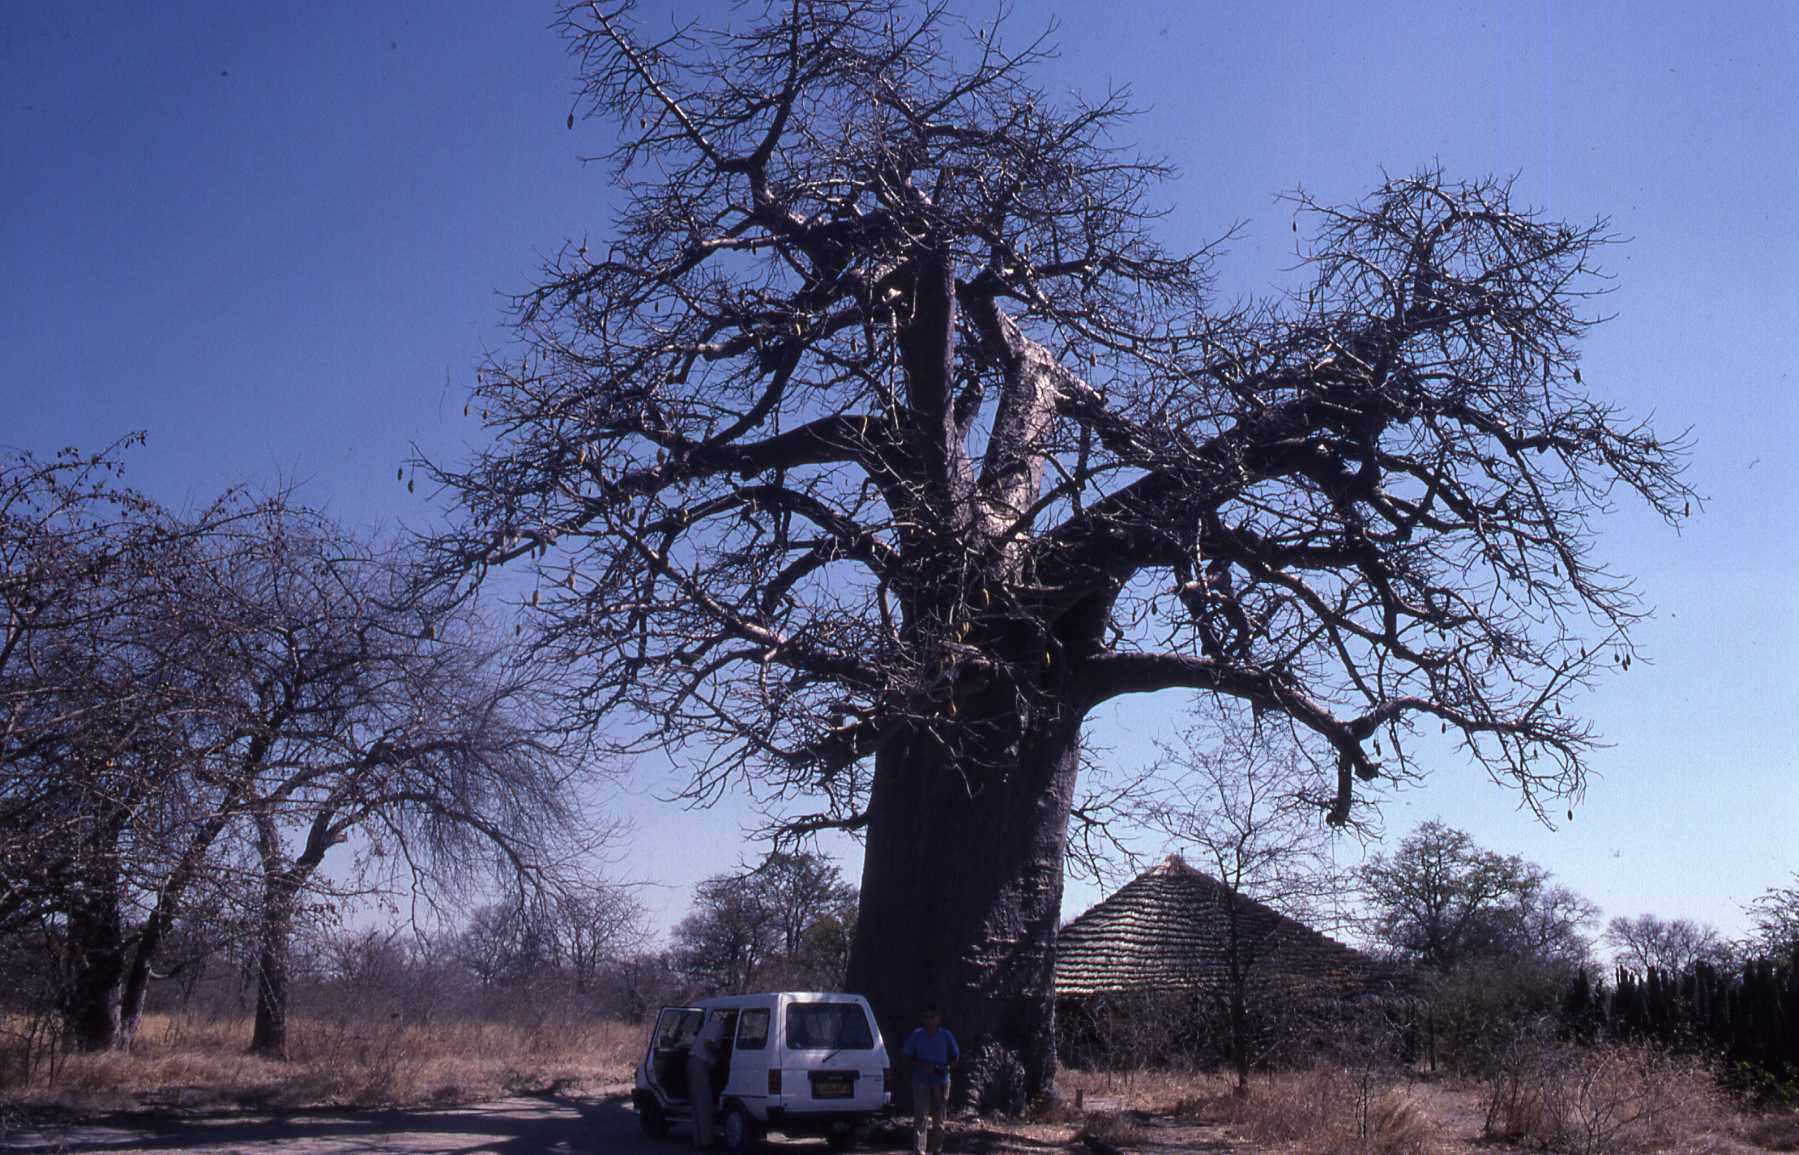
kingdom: Plantae
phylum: Tracheophyta
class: Magnoliopsida
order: Malvales
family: Malvaceae
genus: Adansonia
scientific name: Adansonia digitata
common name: Dead-rat-tree
